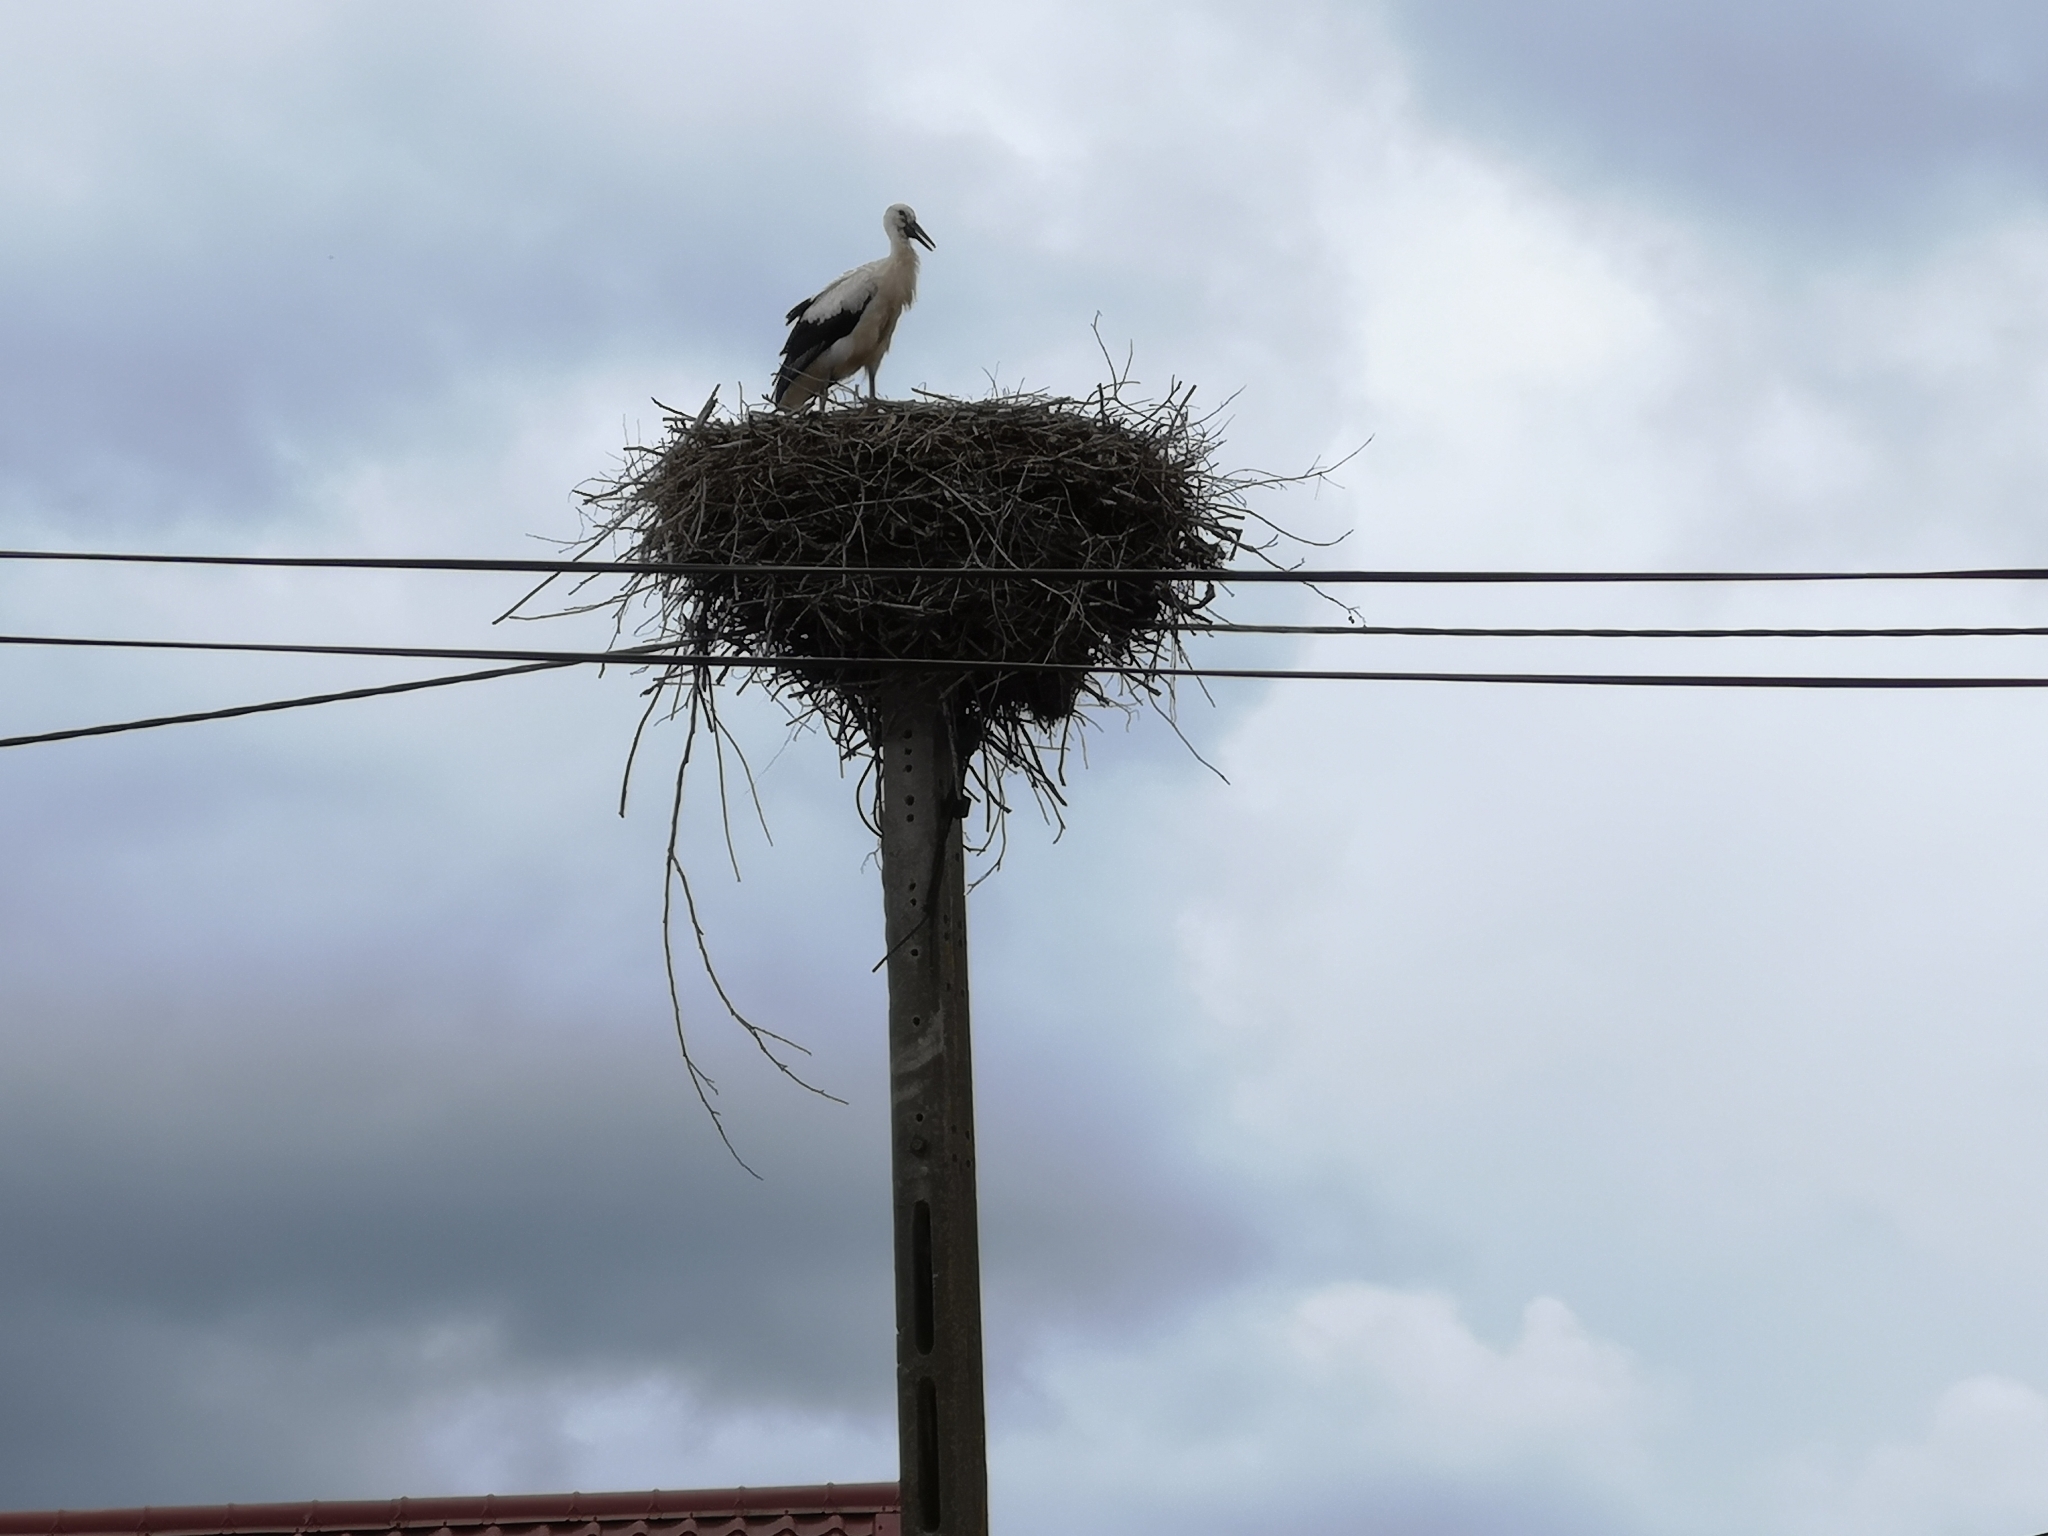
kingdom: Animalia
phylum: Chordata
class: Aves
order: Ciconiiformes
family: Ciconiidae
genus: Ciconia
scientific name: Ciconia ciconia
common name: White stork
